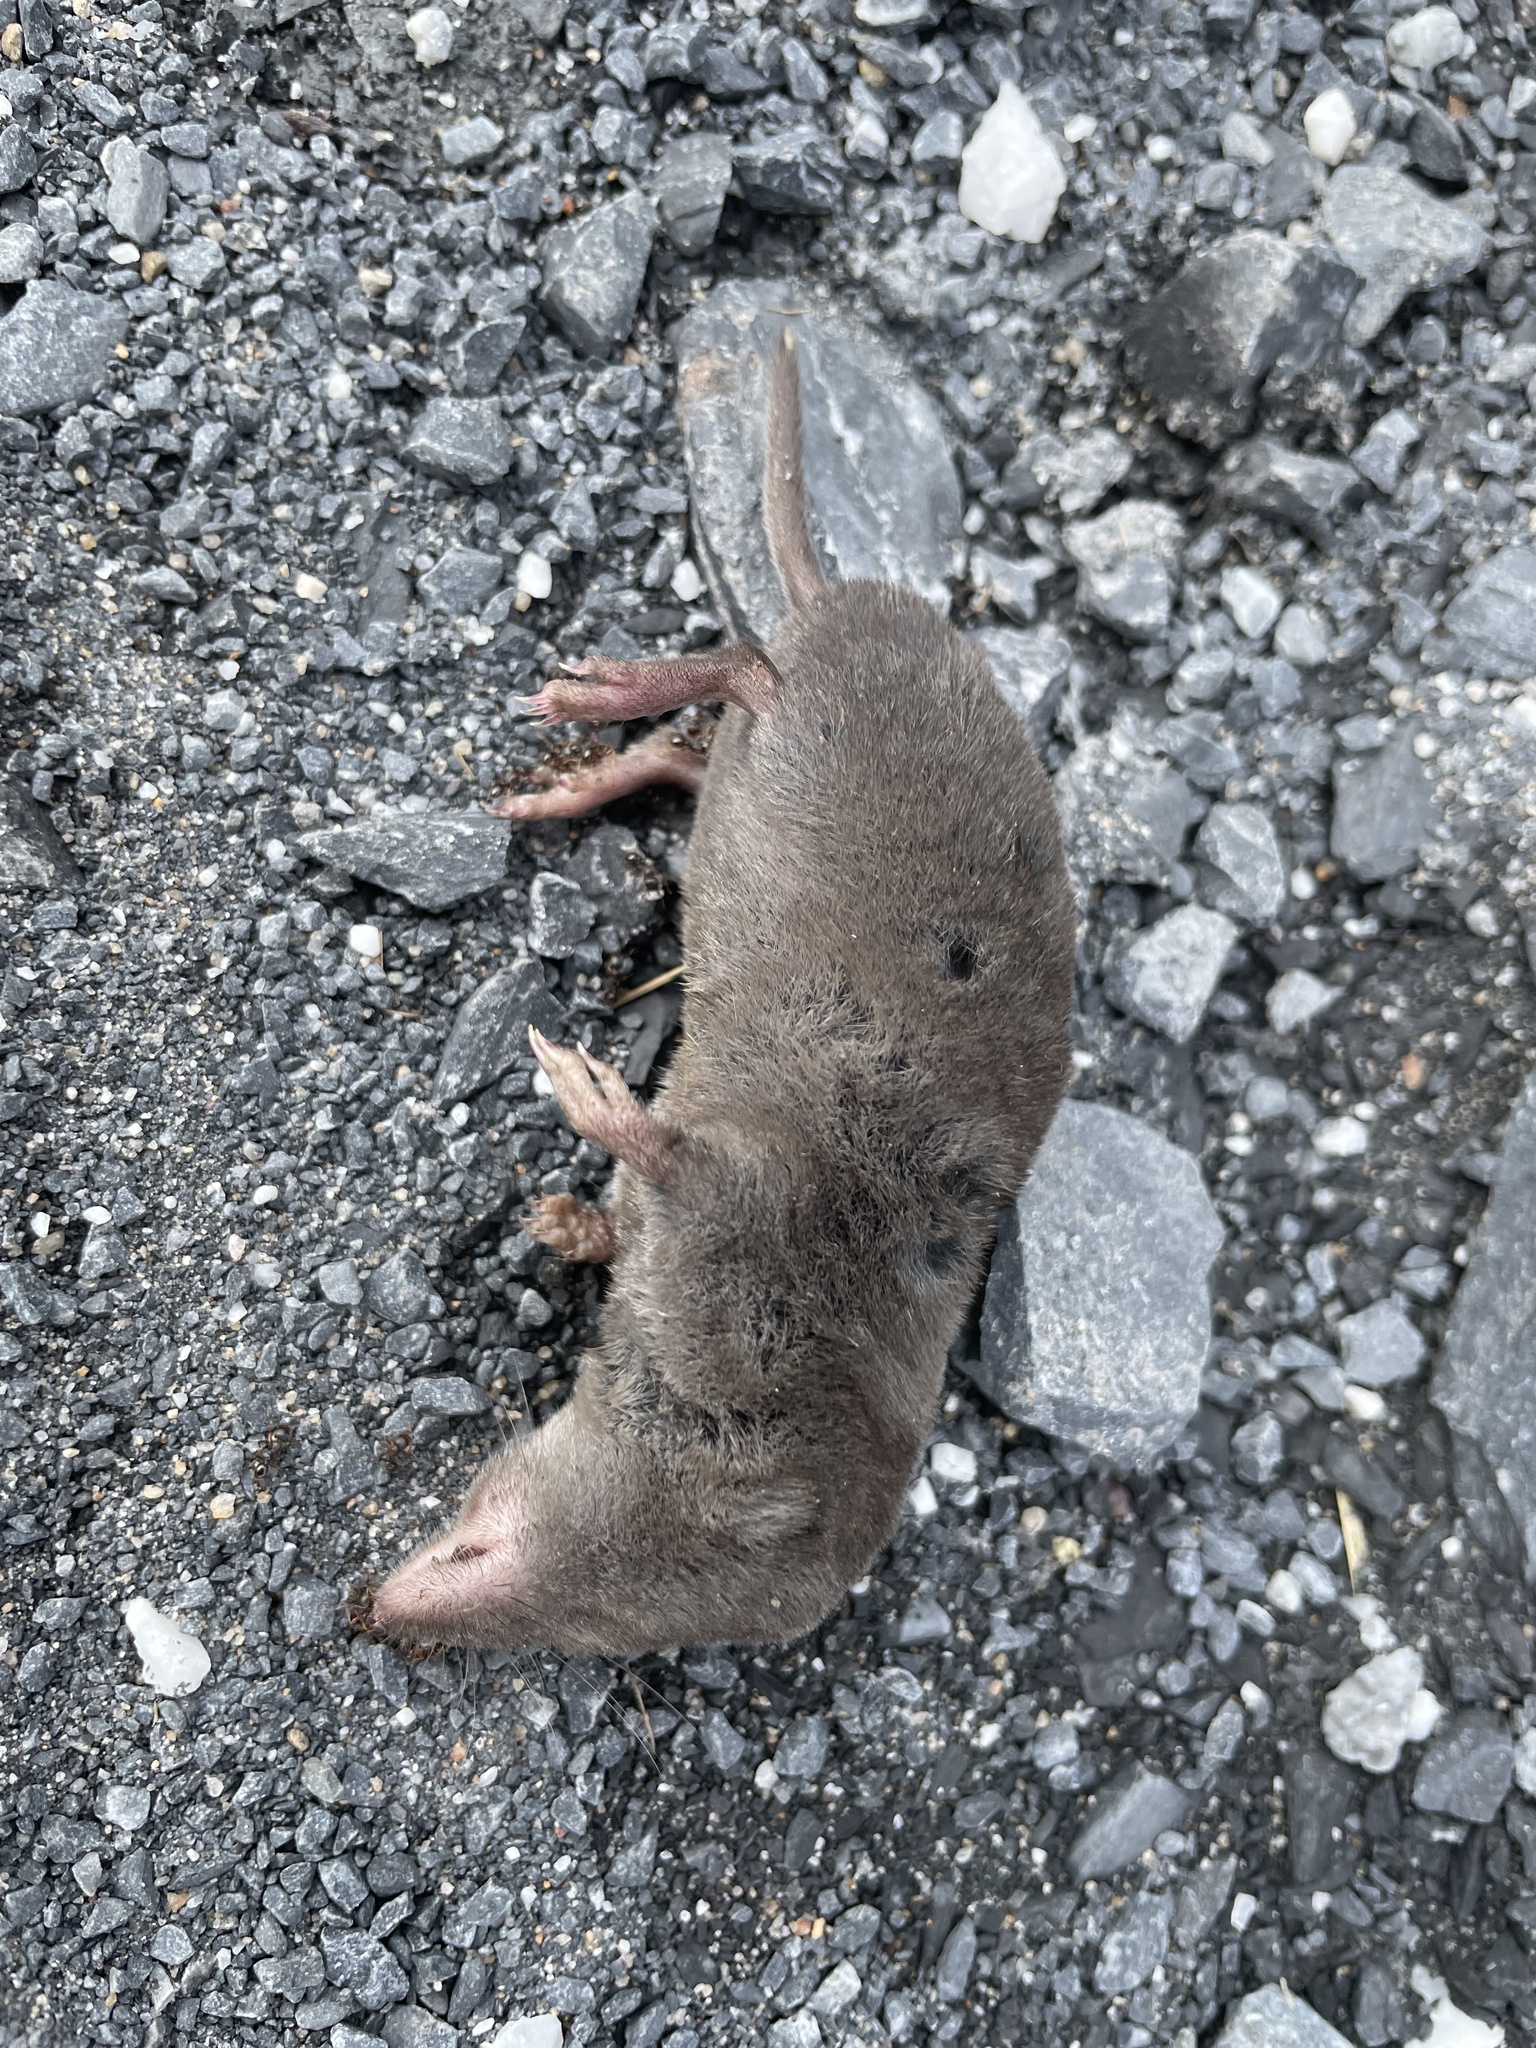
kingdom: Animalia
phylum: Chordata
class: Mammalia
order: Soricomorpha
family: Soricidae
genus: Blarina
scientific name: Blarina brevicauda
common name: Northern short-tailed shrew
